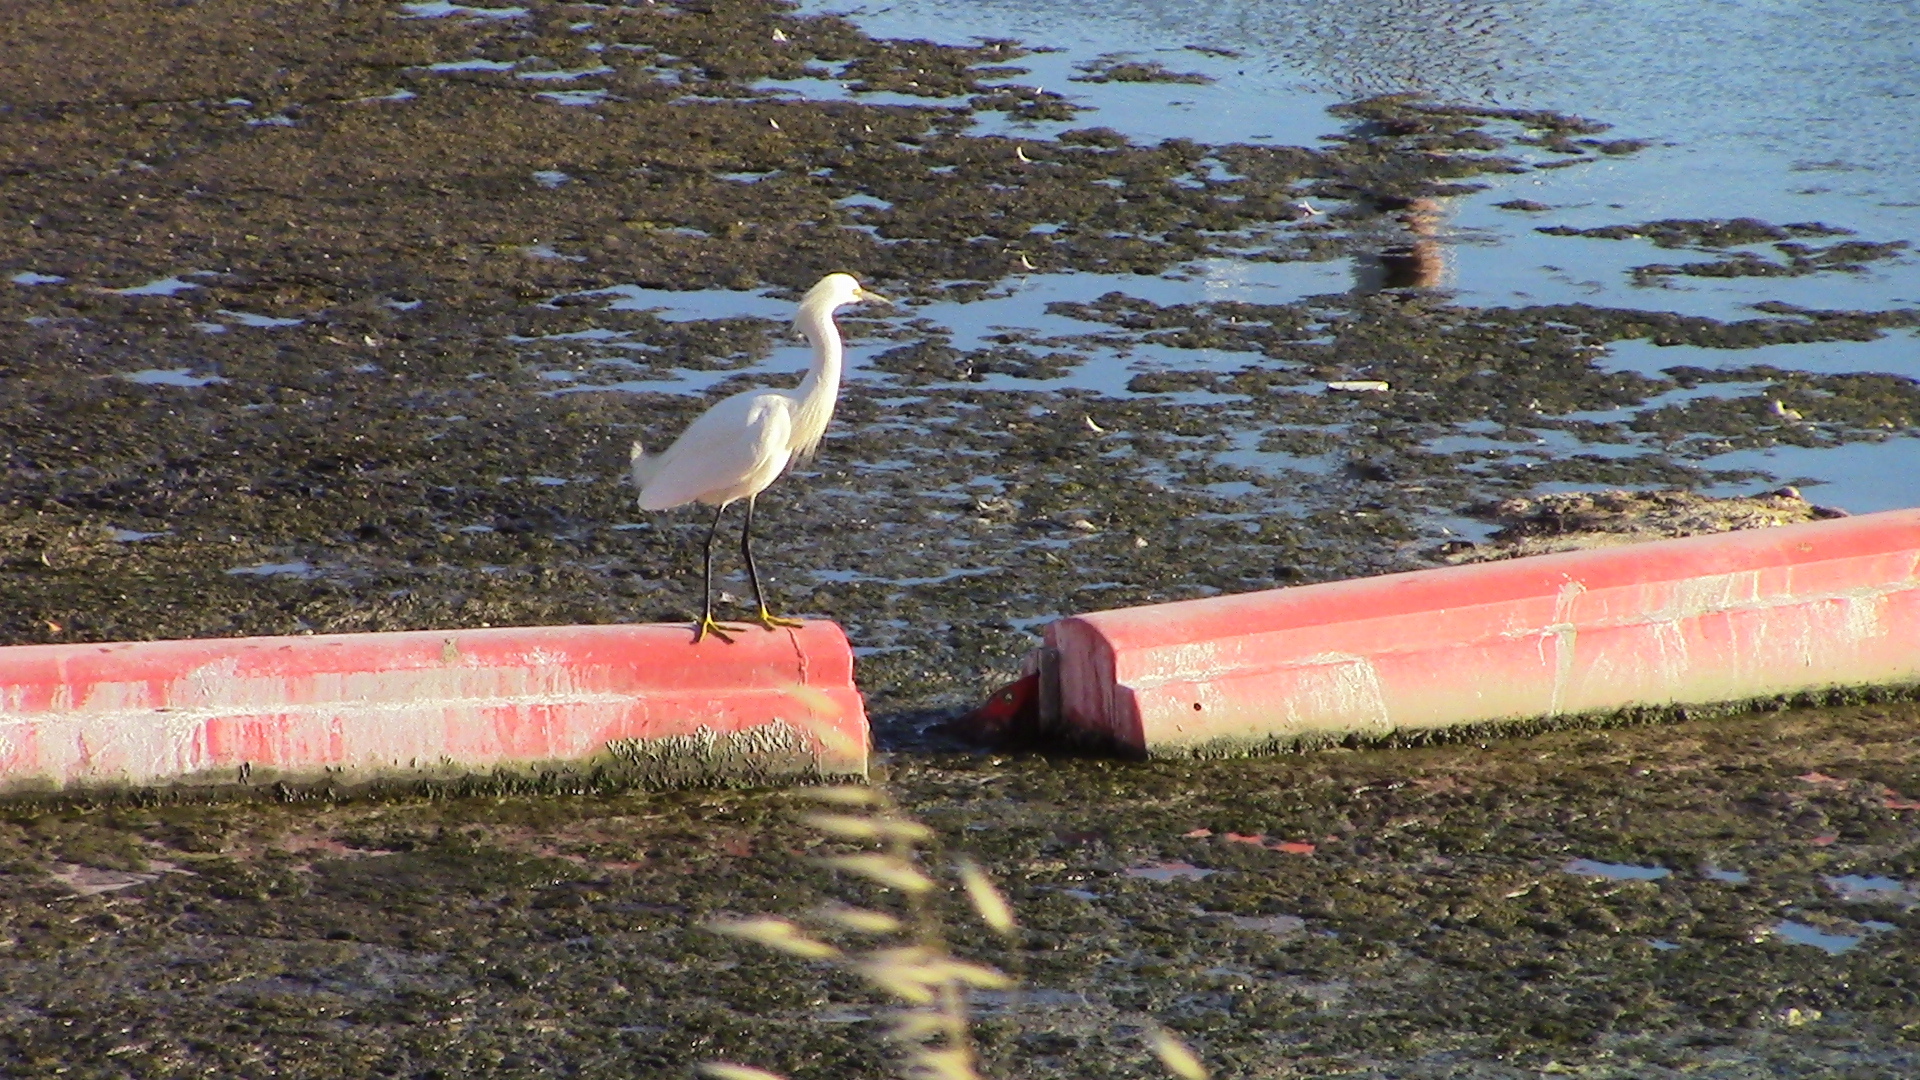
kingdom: Animalia
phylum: Chordata
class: Aves
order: Pelecaniformes
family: Ardeidae
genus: Egretta
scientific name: Egretta thula
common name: Snowy egret
